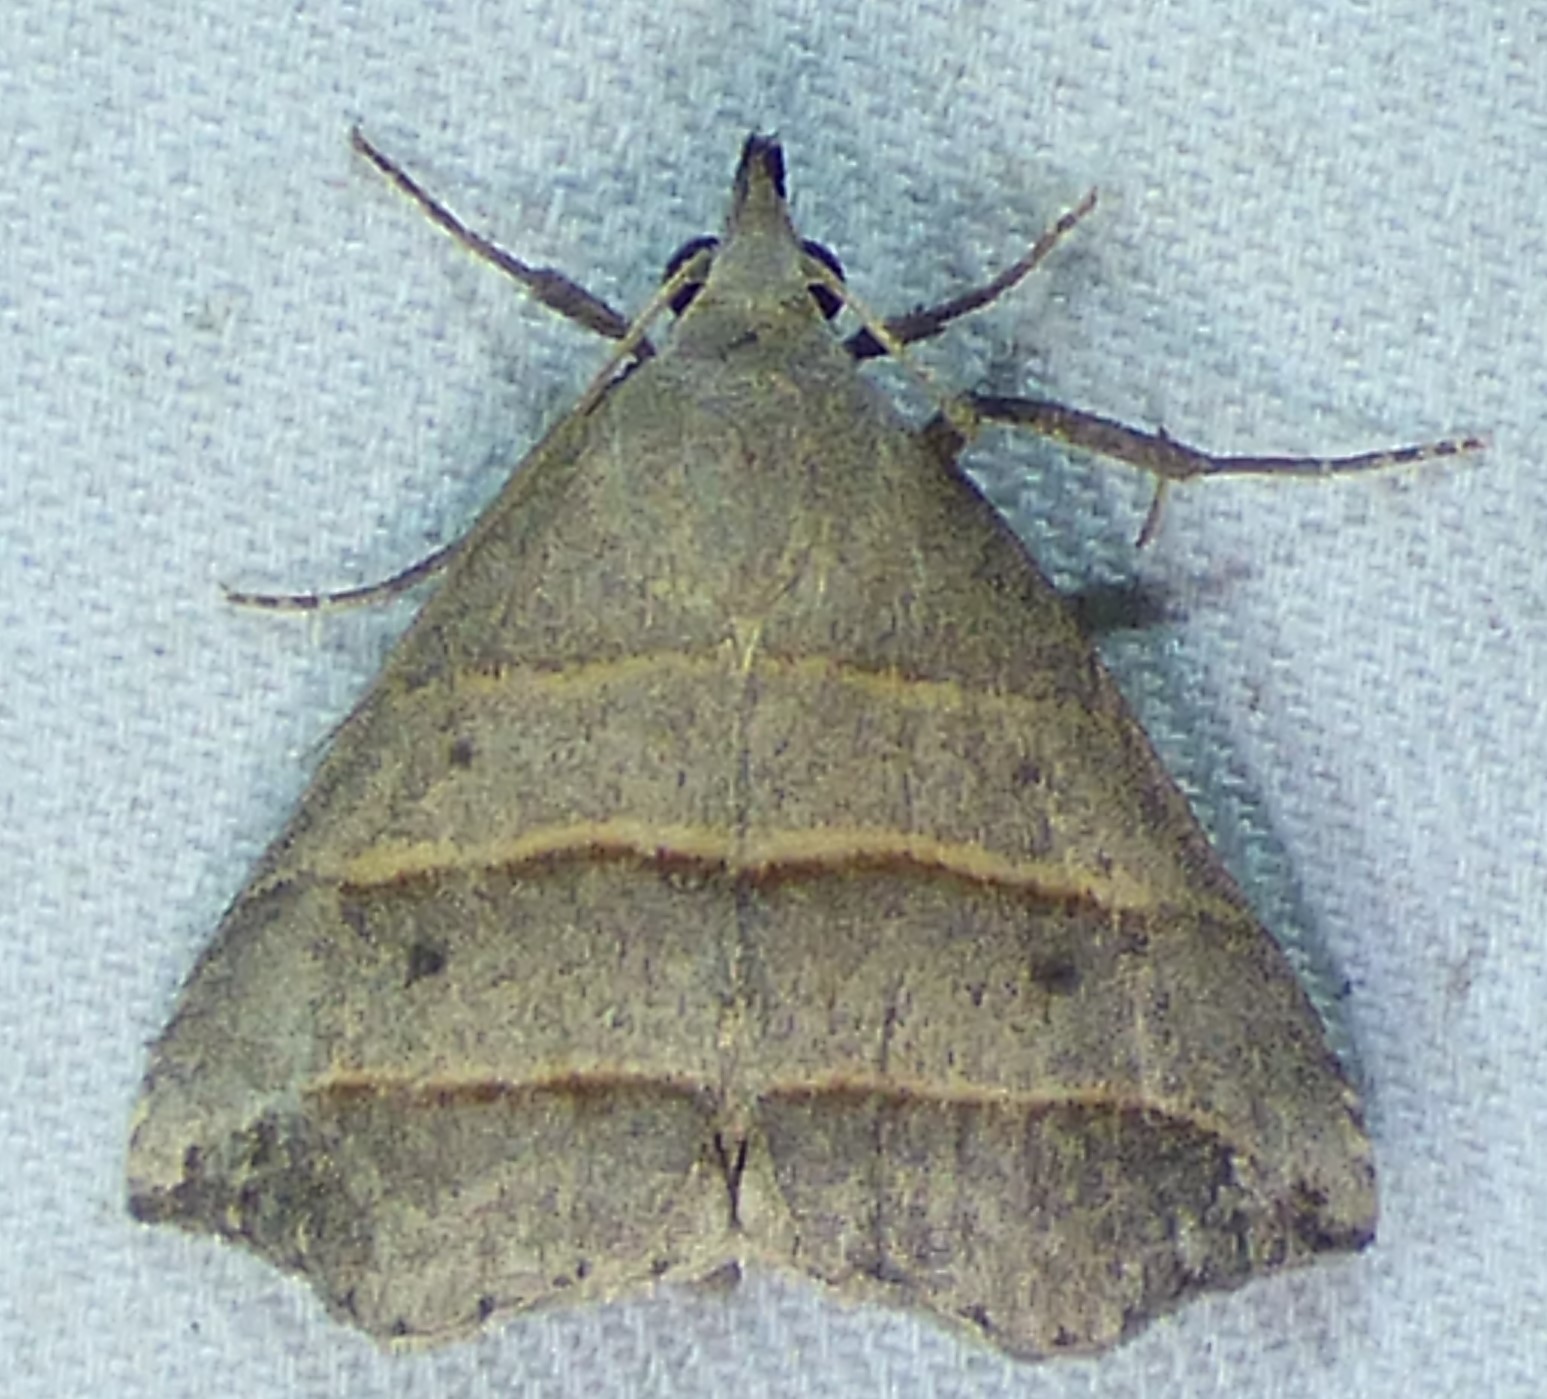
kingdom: Animalia
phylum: Arthropoda
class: Insecta
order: Lepidoptera
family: Erebidae
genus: Colobochyla
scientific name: Colobochyla interpuncta
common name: Yellow-lined owlet
